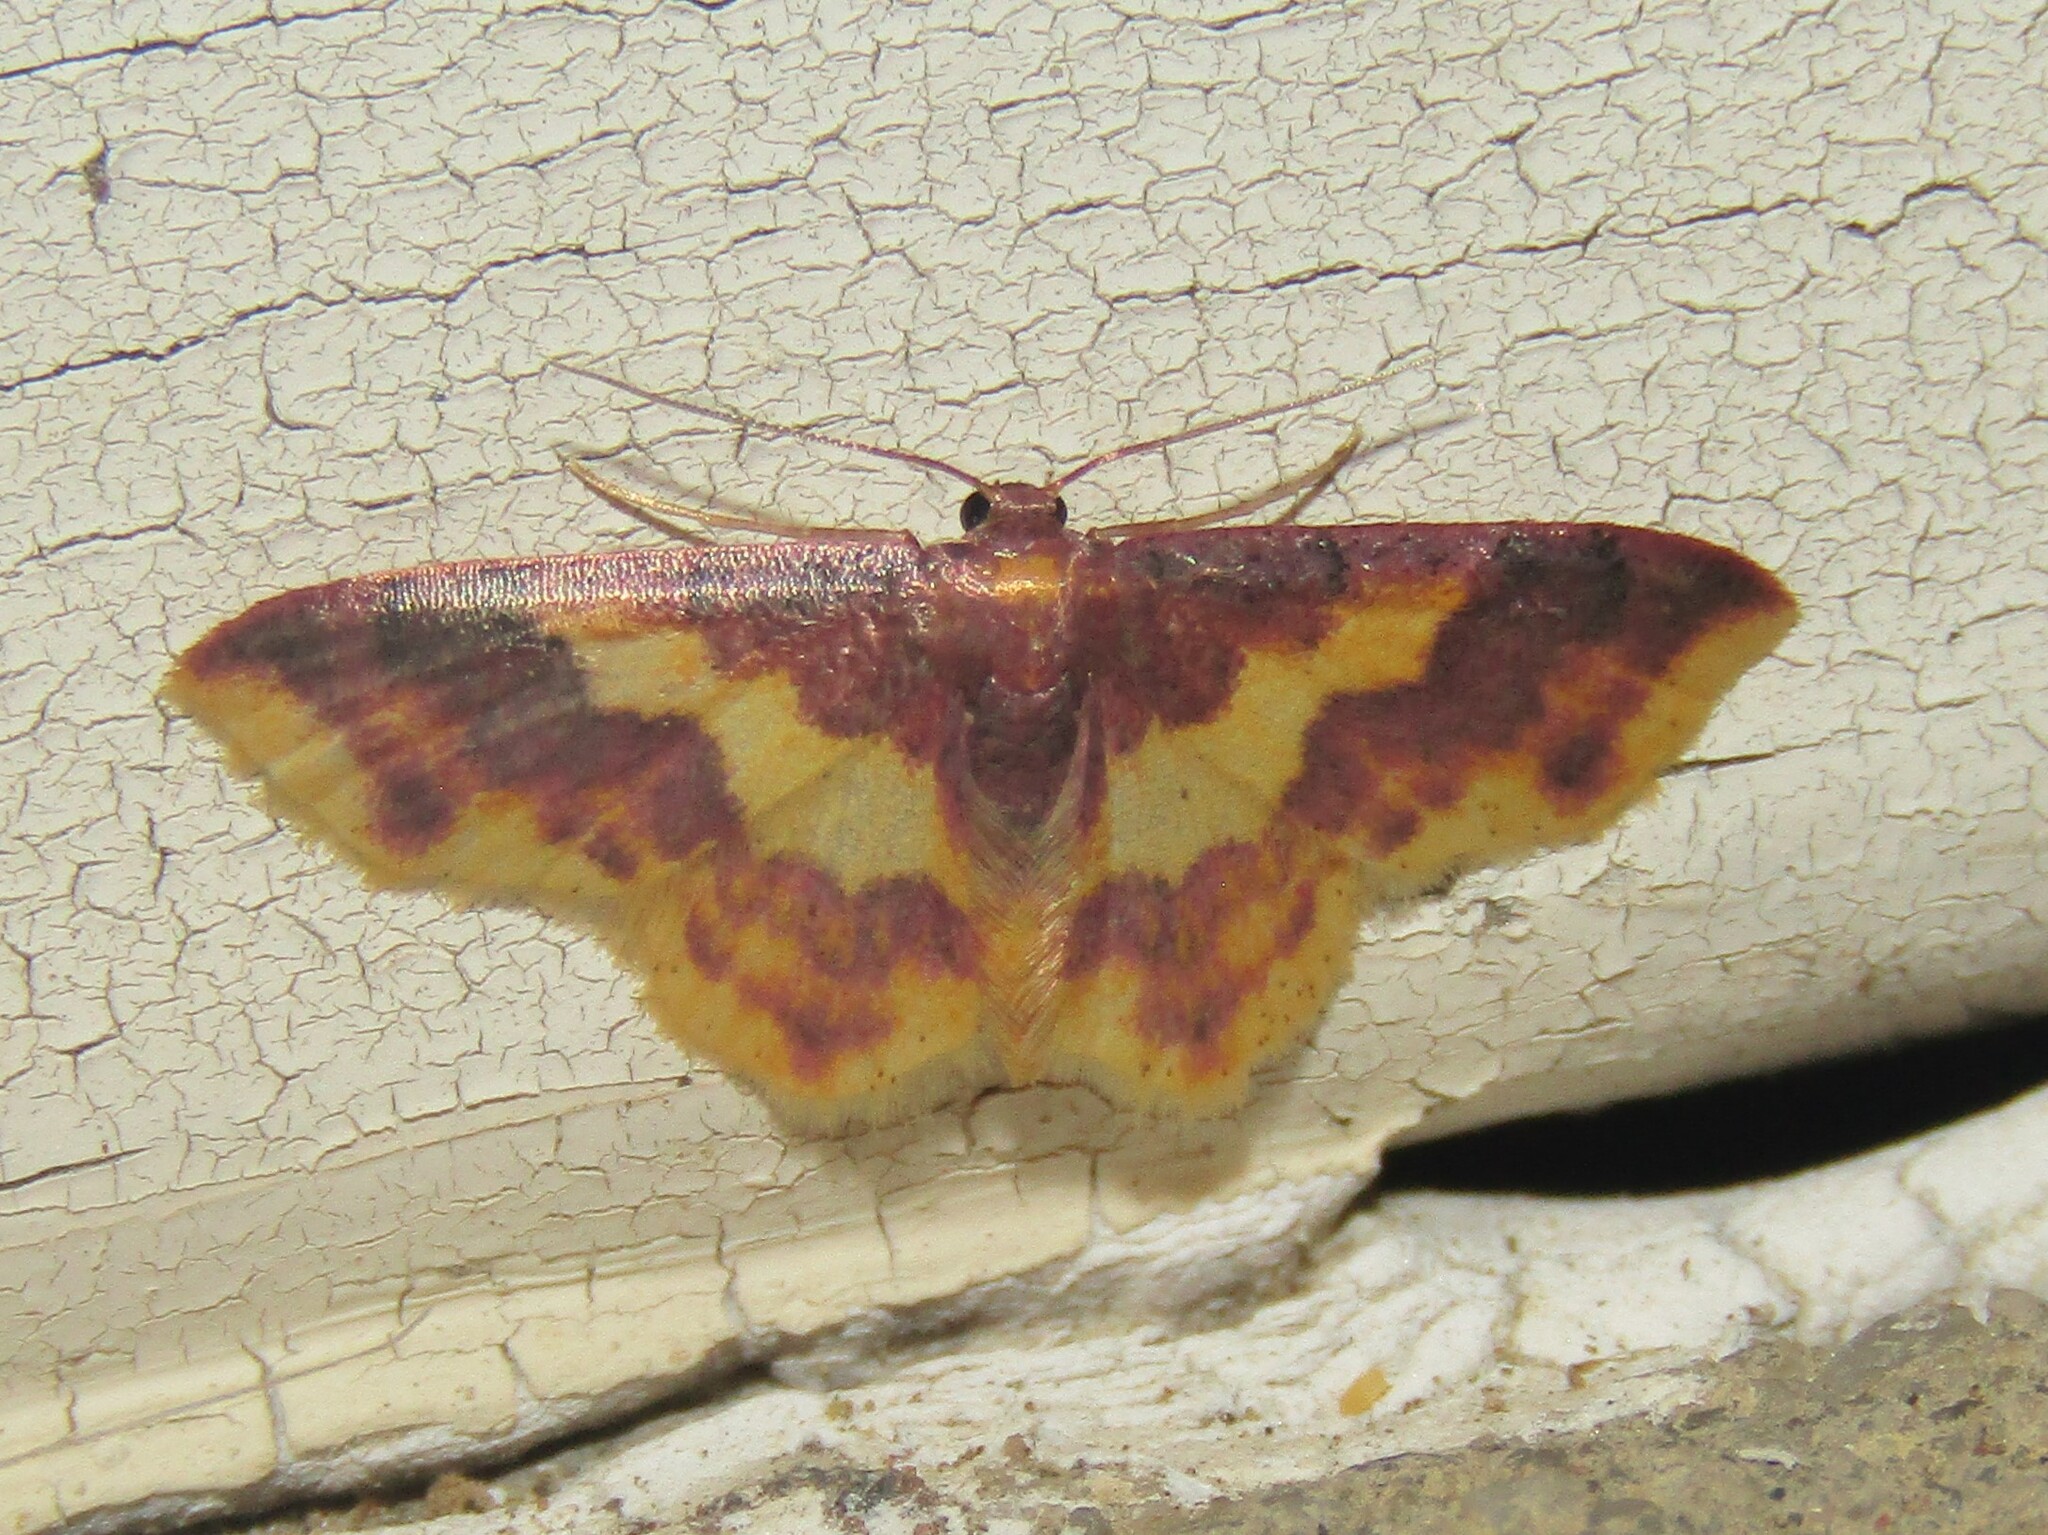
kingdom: Animalia
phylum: Arthropoda
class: Insecta
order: Lepidoptera
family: Geometridae
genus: Lophosis
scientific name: Lophosis labeculata
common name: Stained lophosis moth
